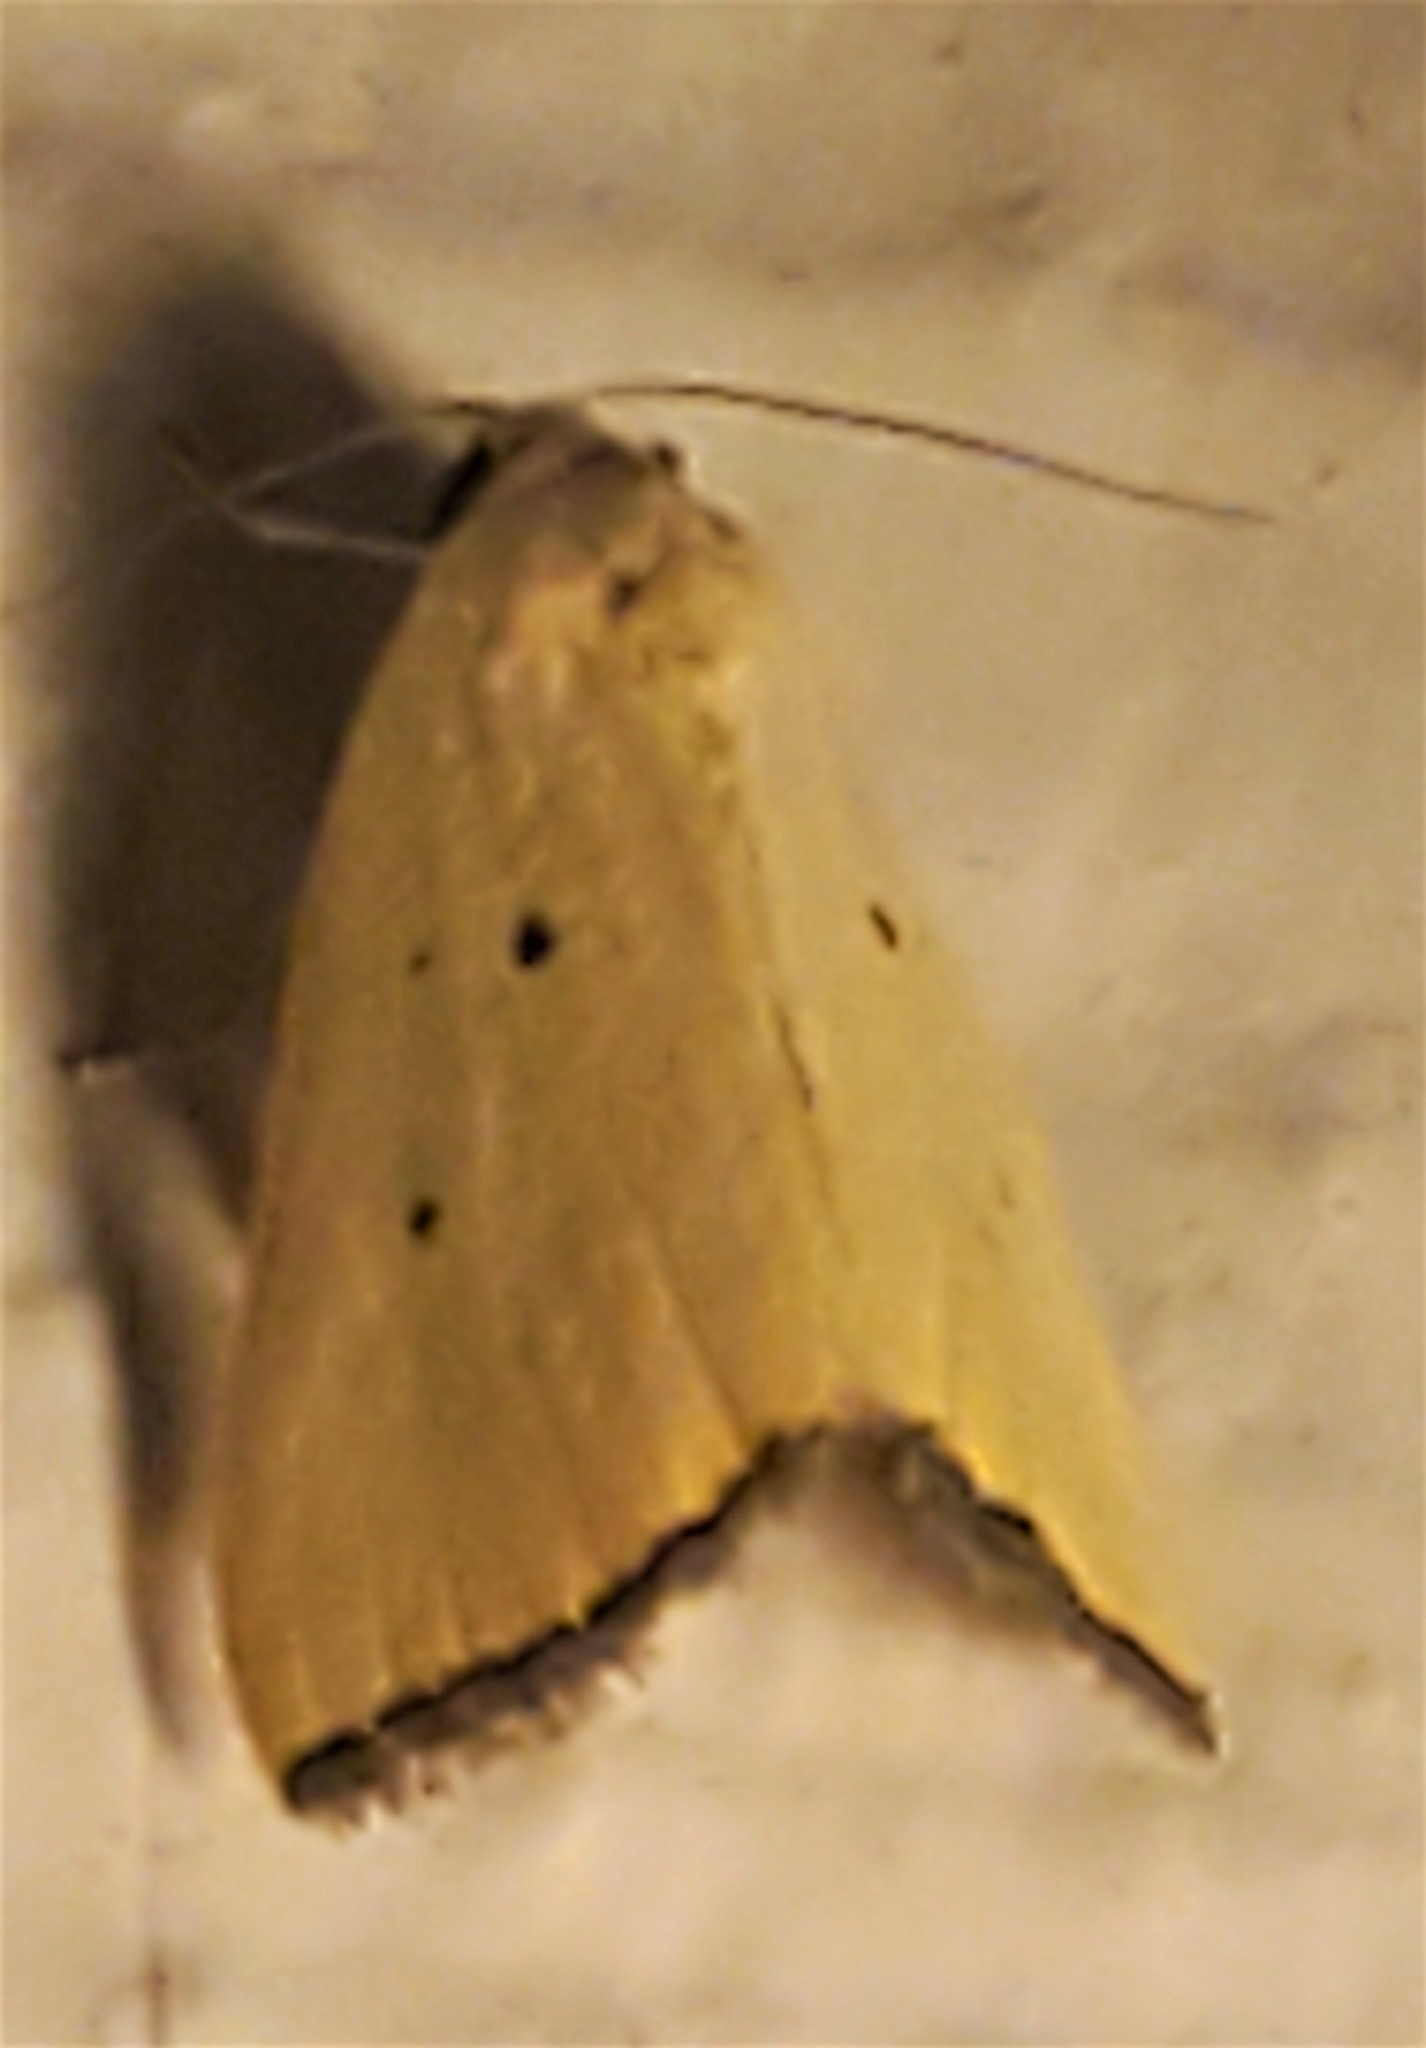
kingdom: Animalia
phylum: Arthropoda
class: Insecta
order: Lepidoptera
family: Noctuidae
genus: Marimatha
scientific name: Marimatha nigrofimbria
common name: Black-bordered lemon moth
